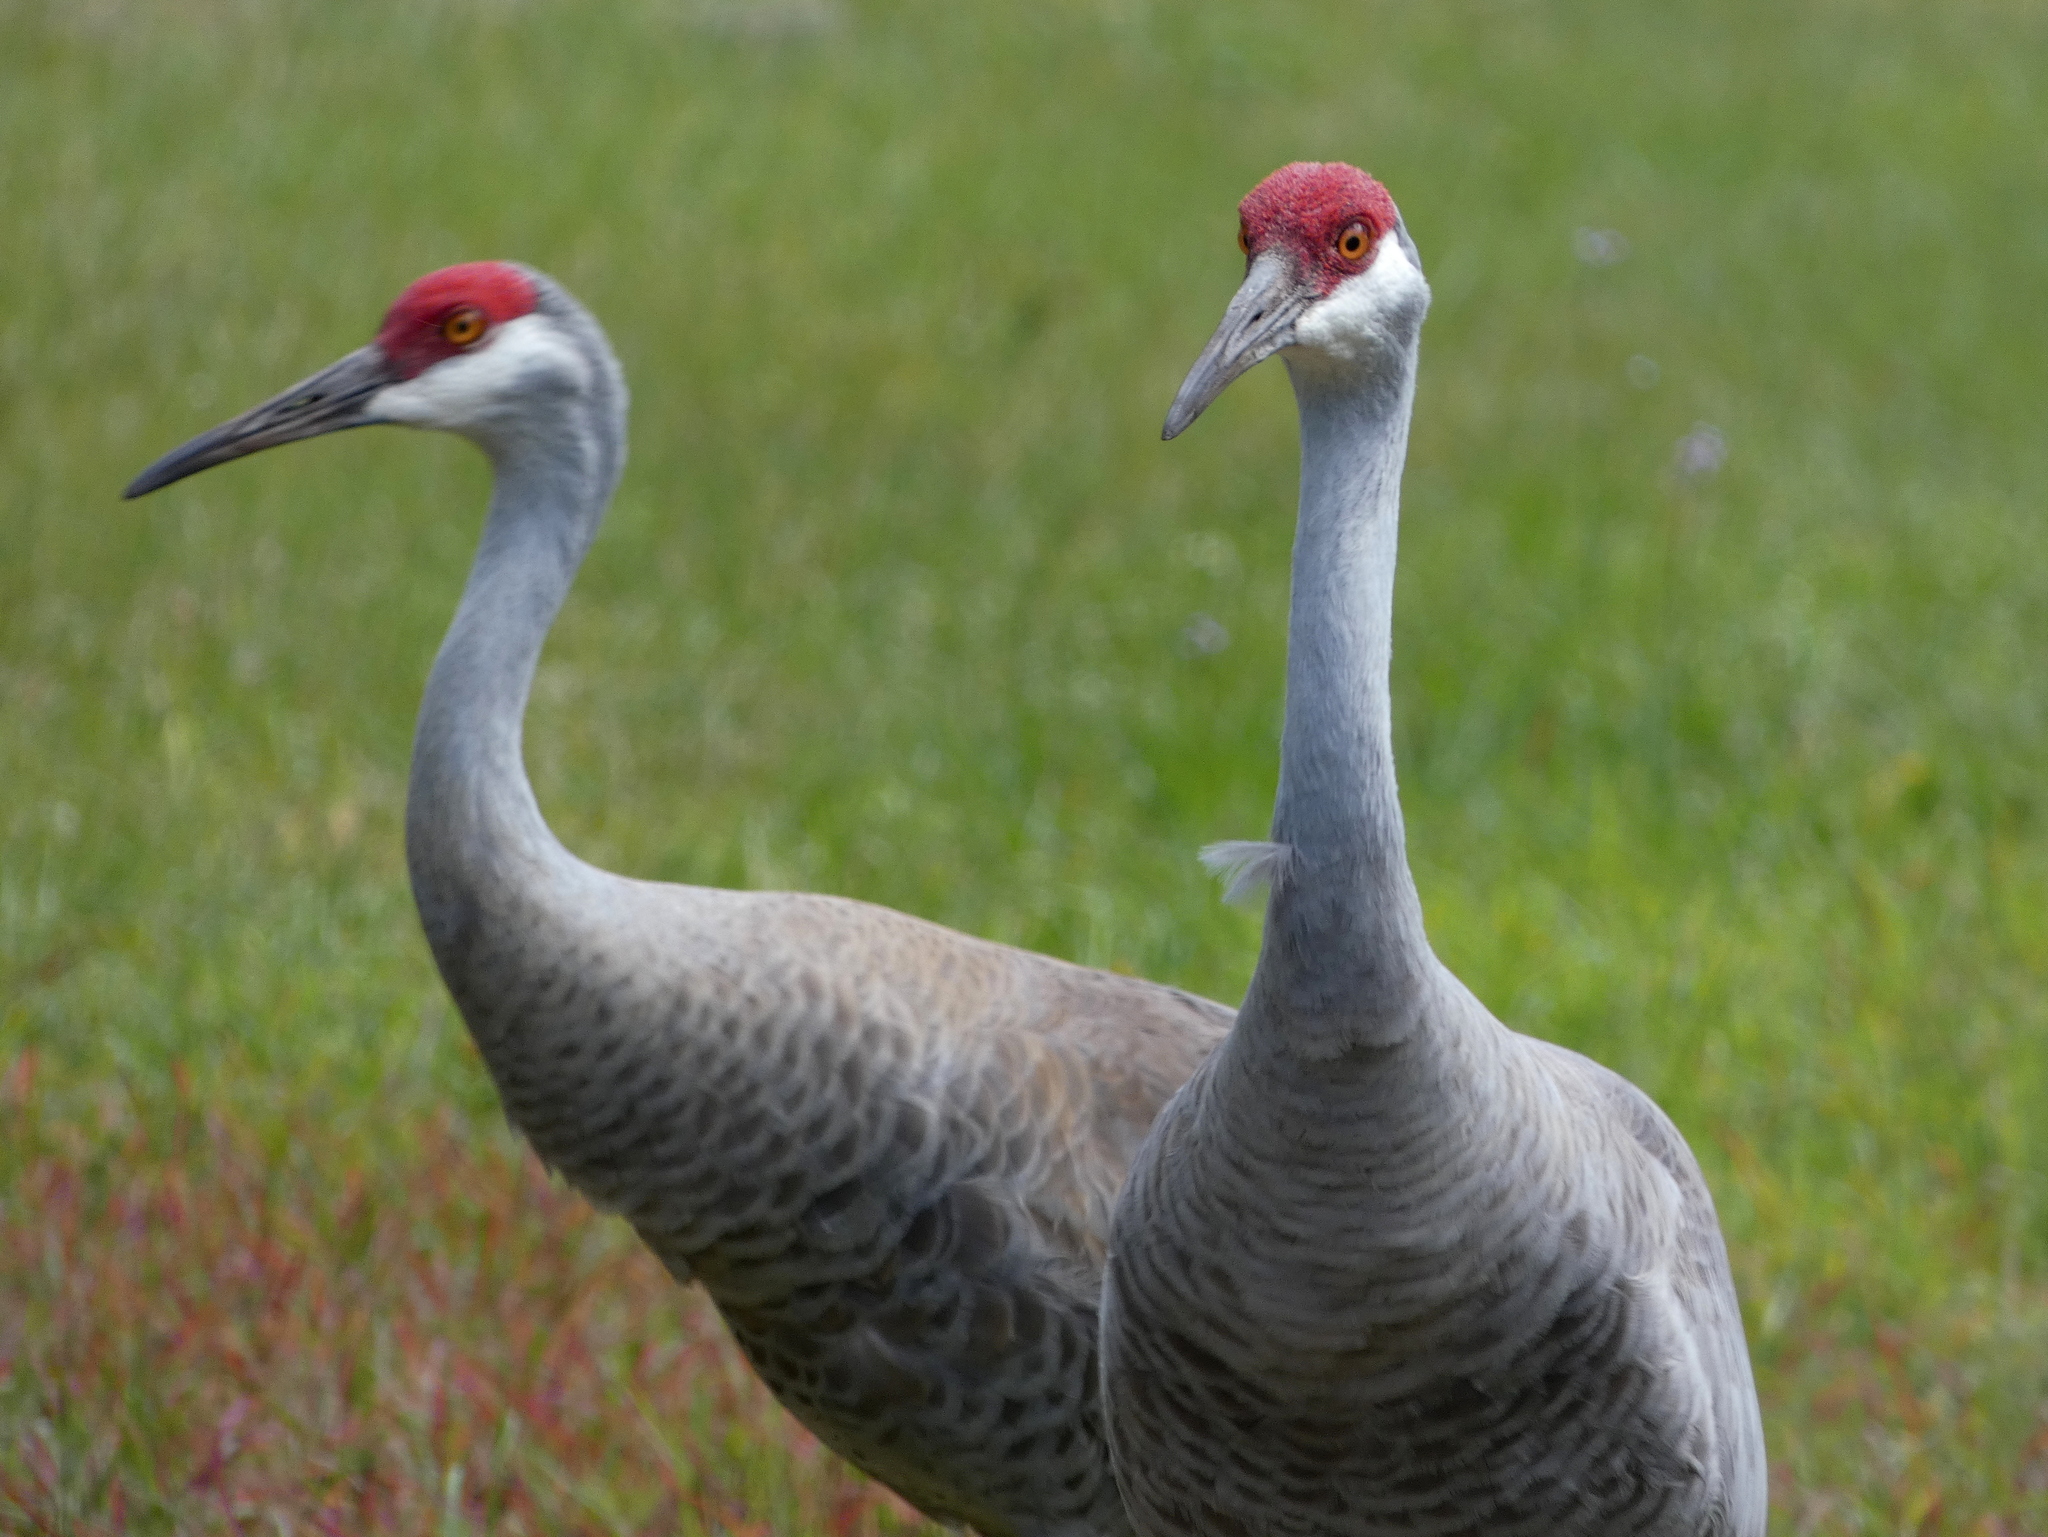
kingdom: Animalia
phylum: Chordata
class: Aves
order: Gruiformes
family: Gruidae
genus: Grus
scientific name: Grus canadensis
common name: Sandhill crane
